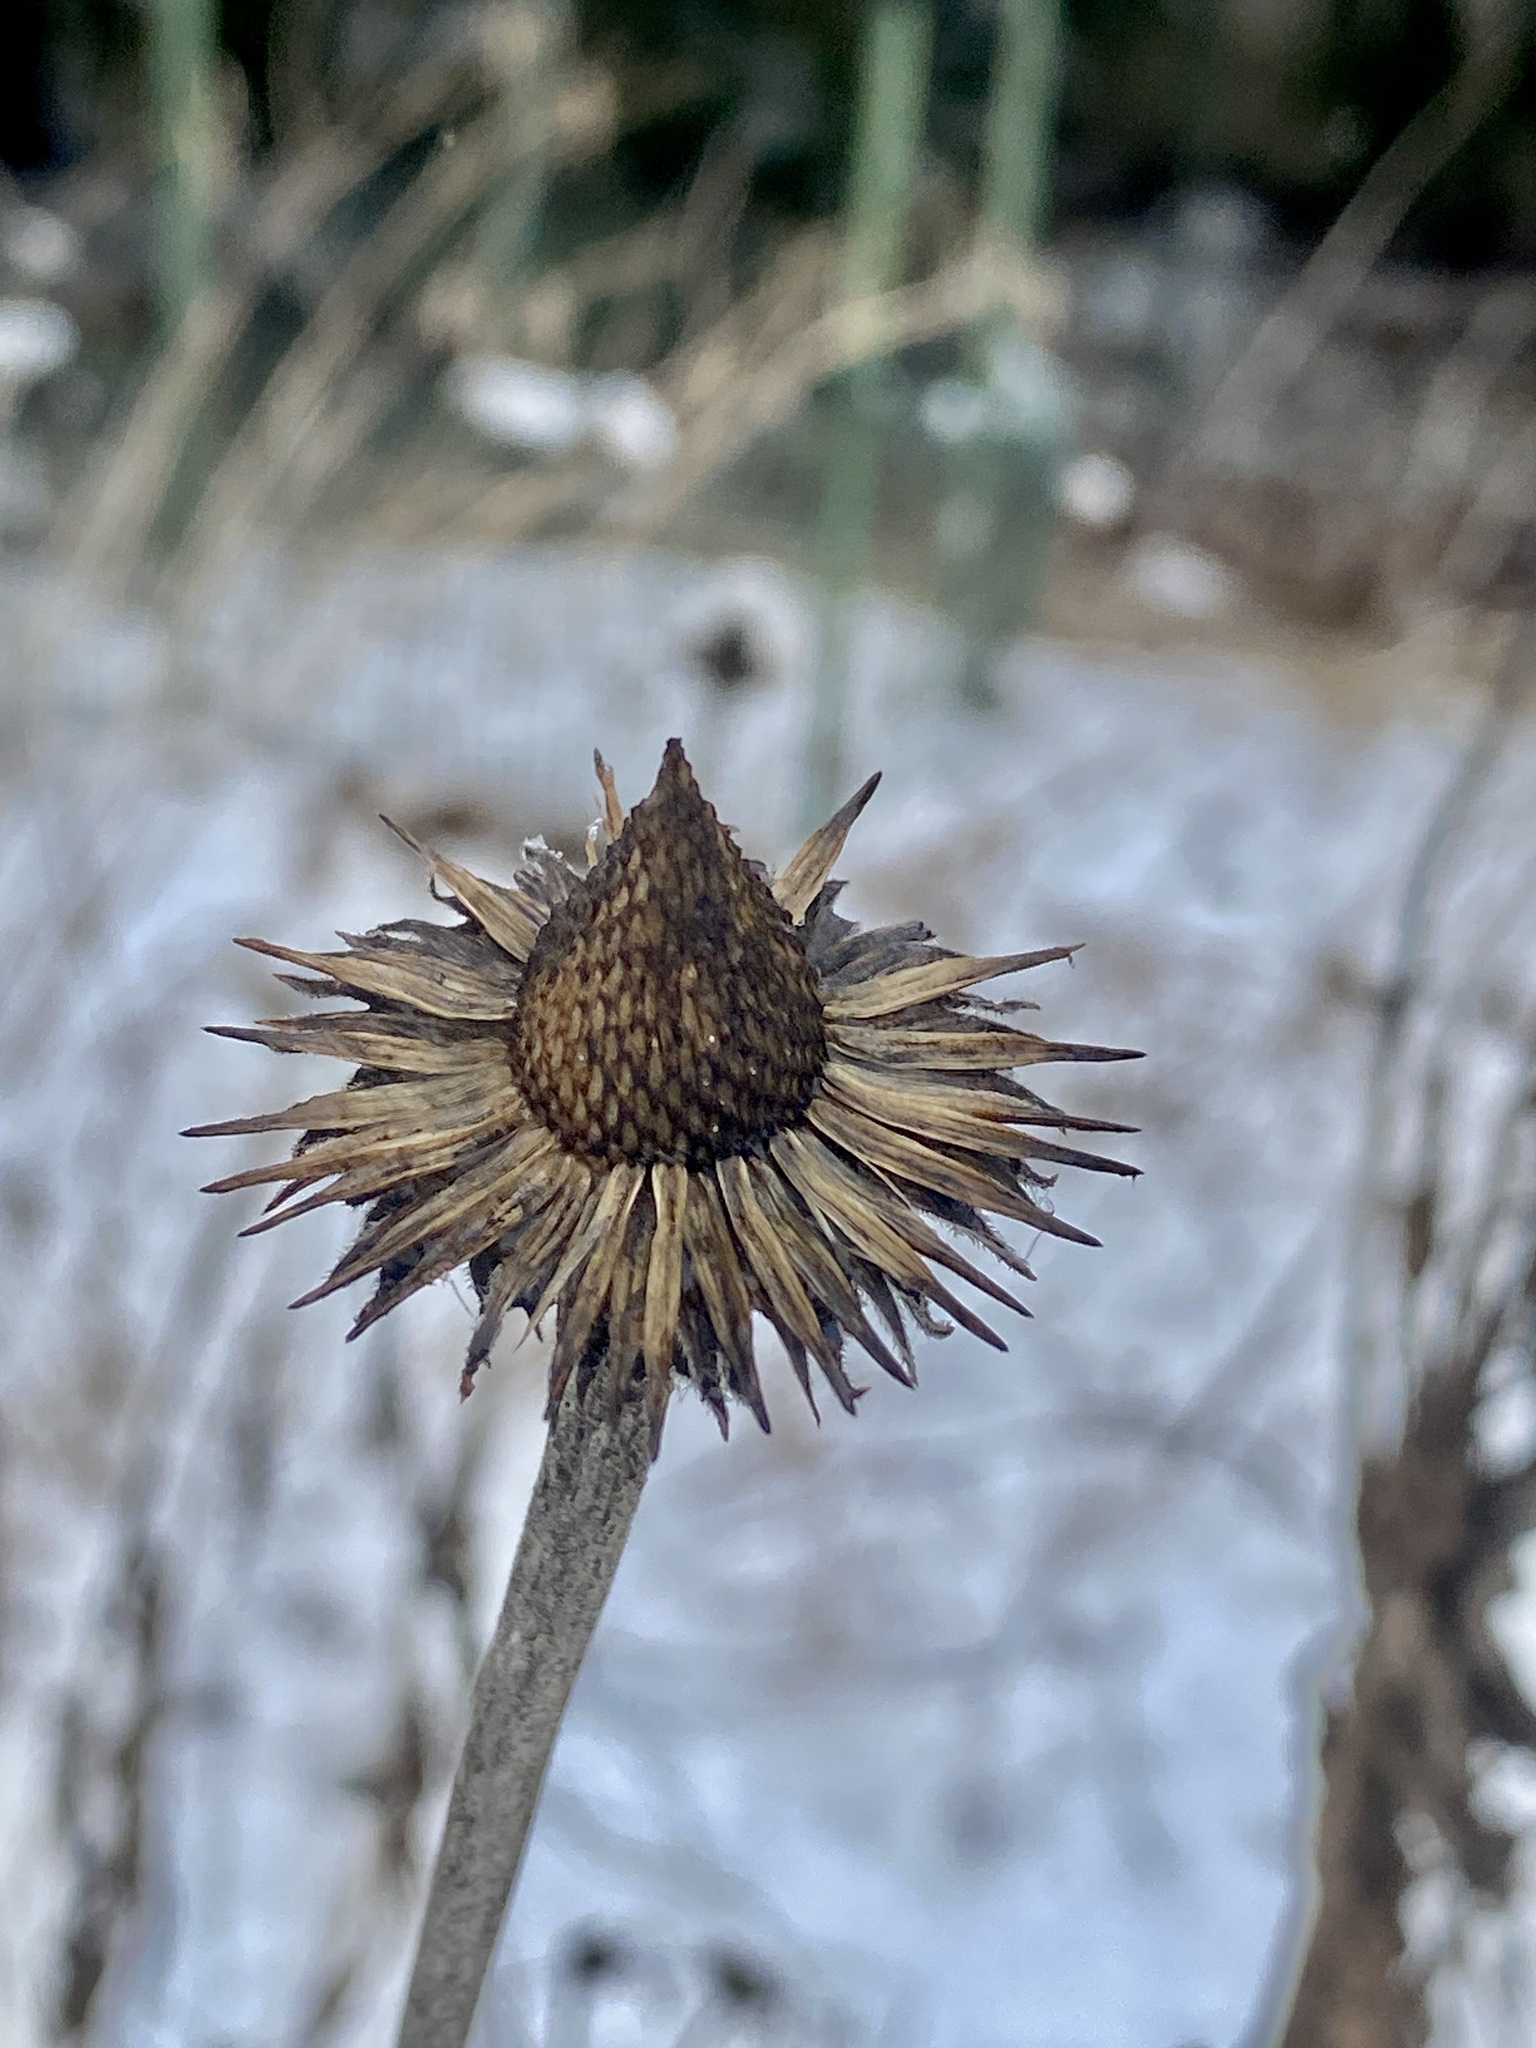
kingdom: Plantae
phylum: Tracheophyta
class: Magnoliopsida
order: Asterales
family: Asteraceae
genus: Echinacea
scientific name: Echinacea purpurea
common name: Broad-leaved purple coneflower
